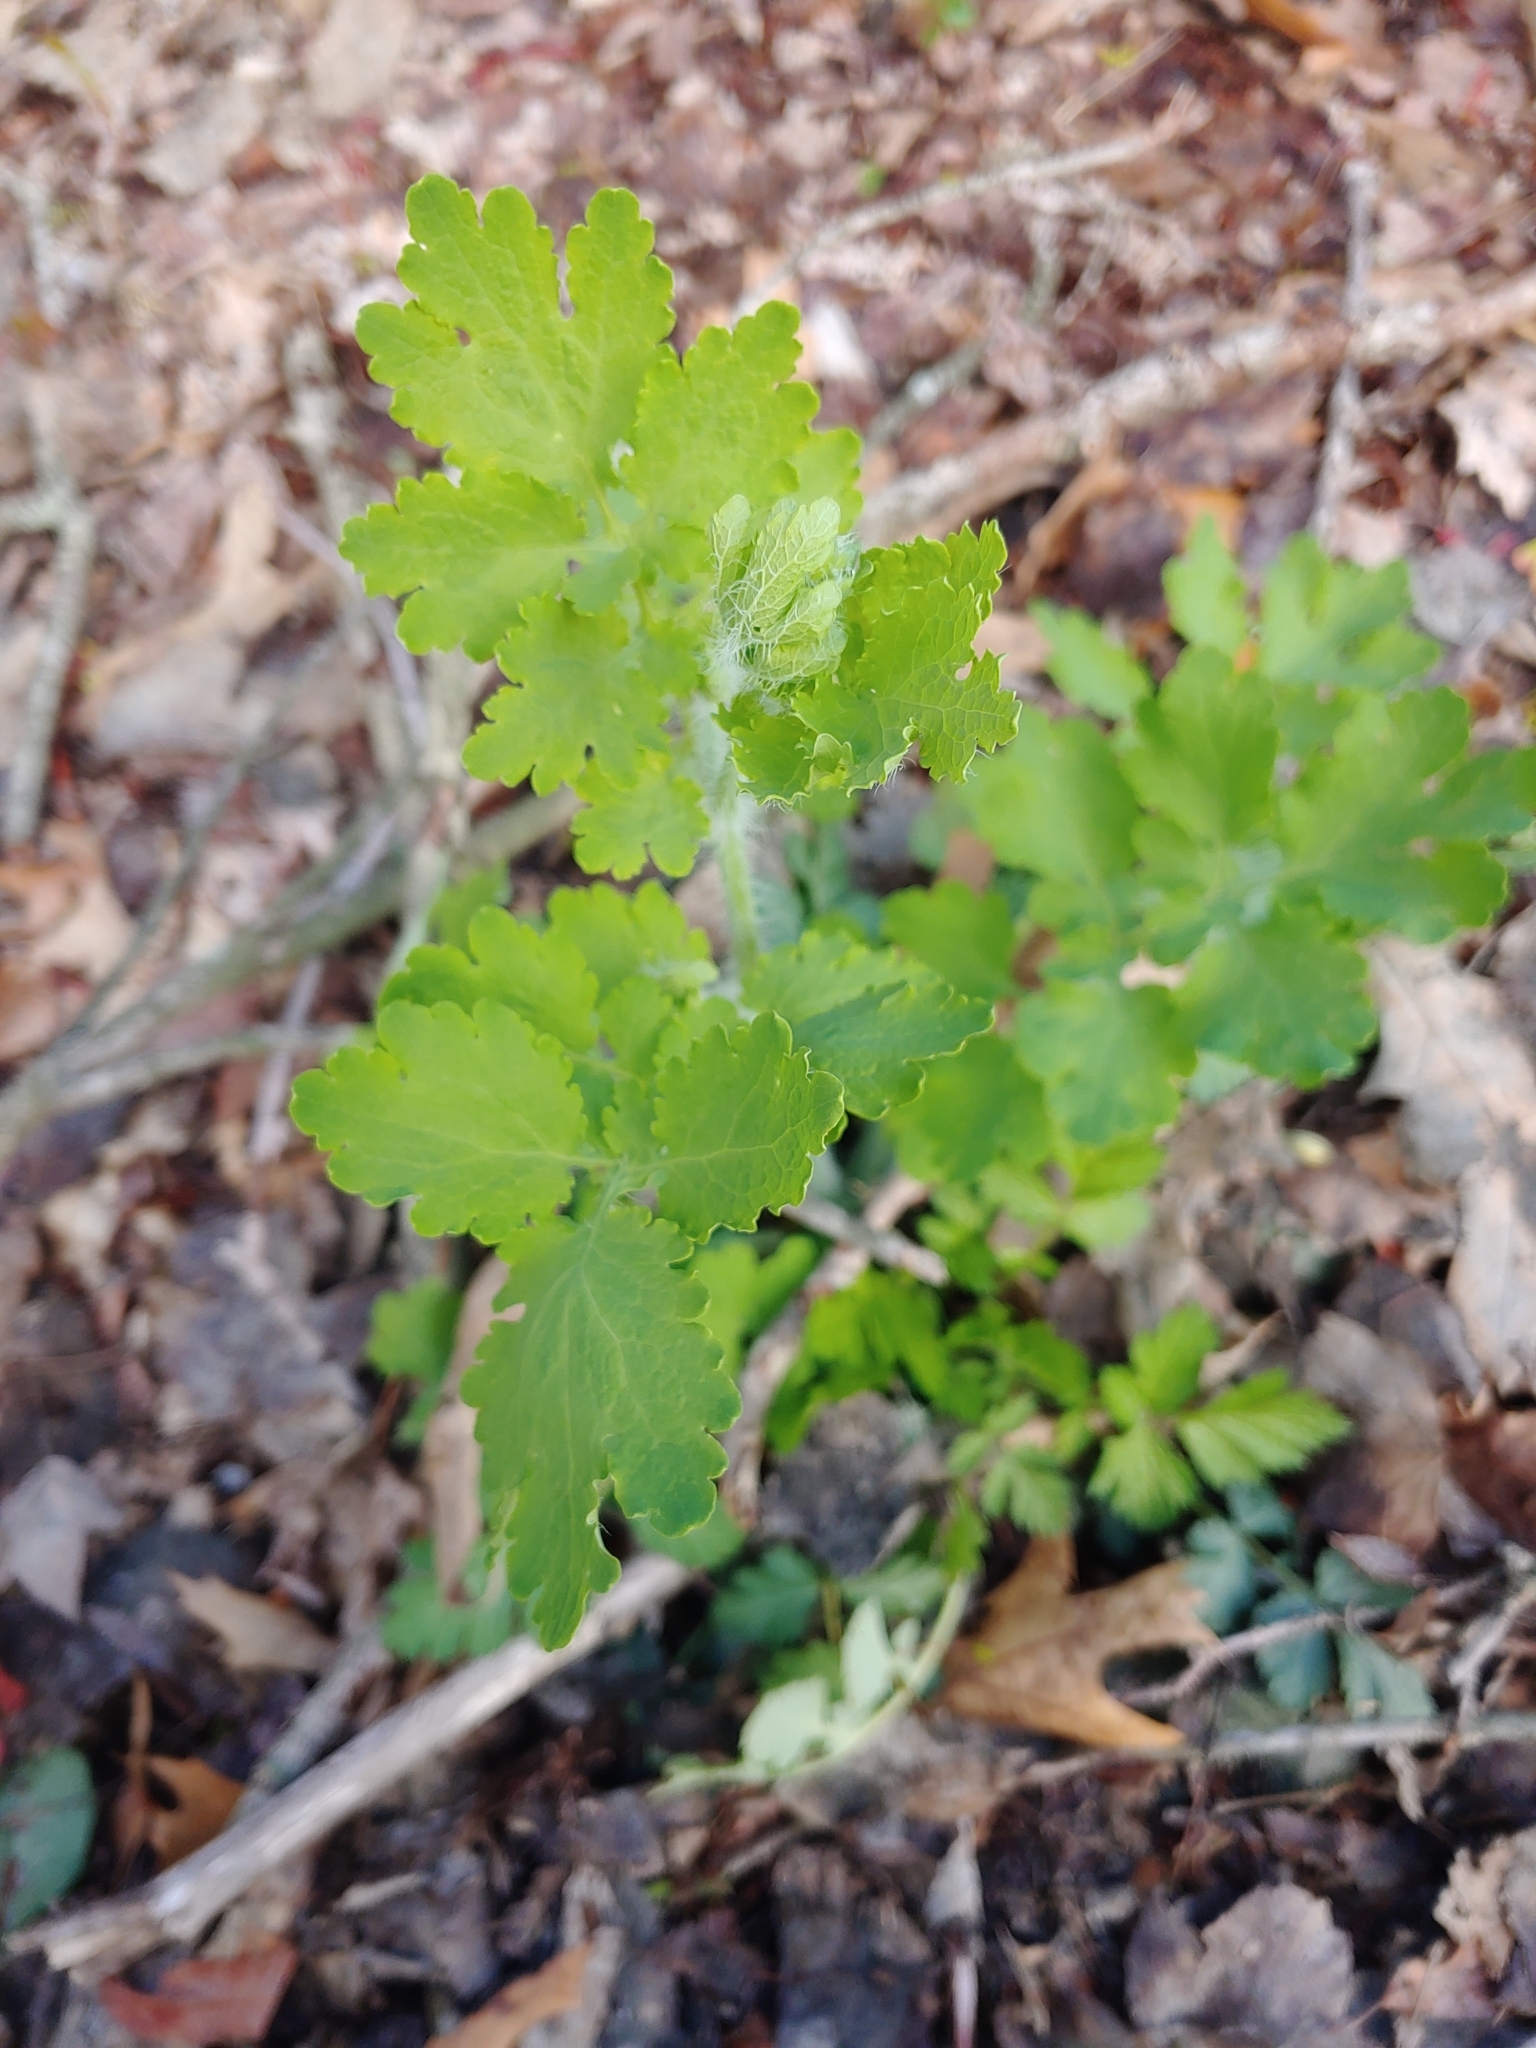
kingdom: Plantae
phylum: Tracheophyta
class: Magnoliopsida
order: Ranunculales
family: Papaveraceae
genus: Chelidonium
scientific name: Chelidonium majus
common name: Greater celandine
